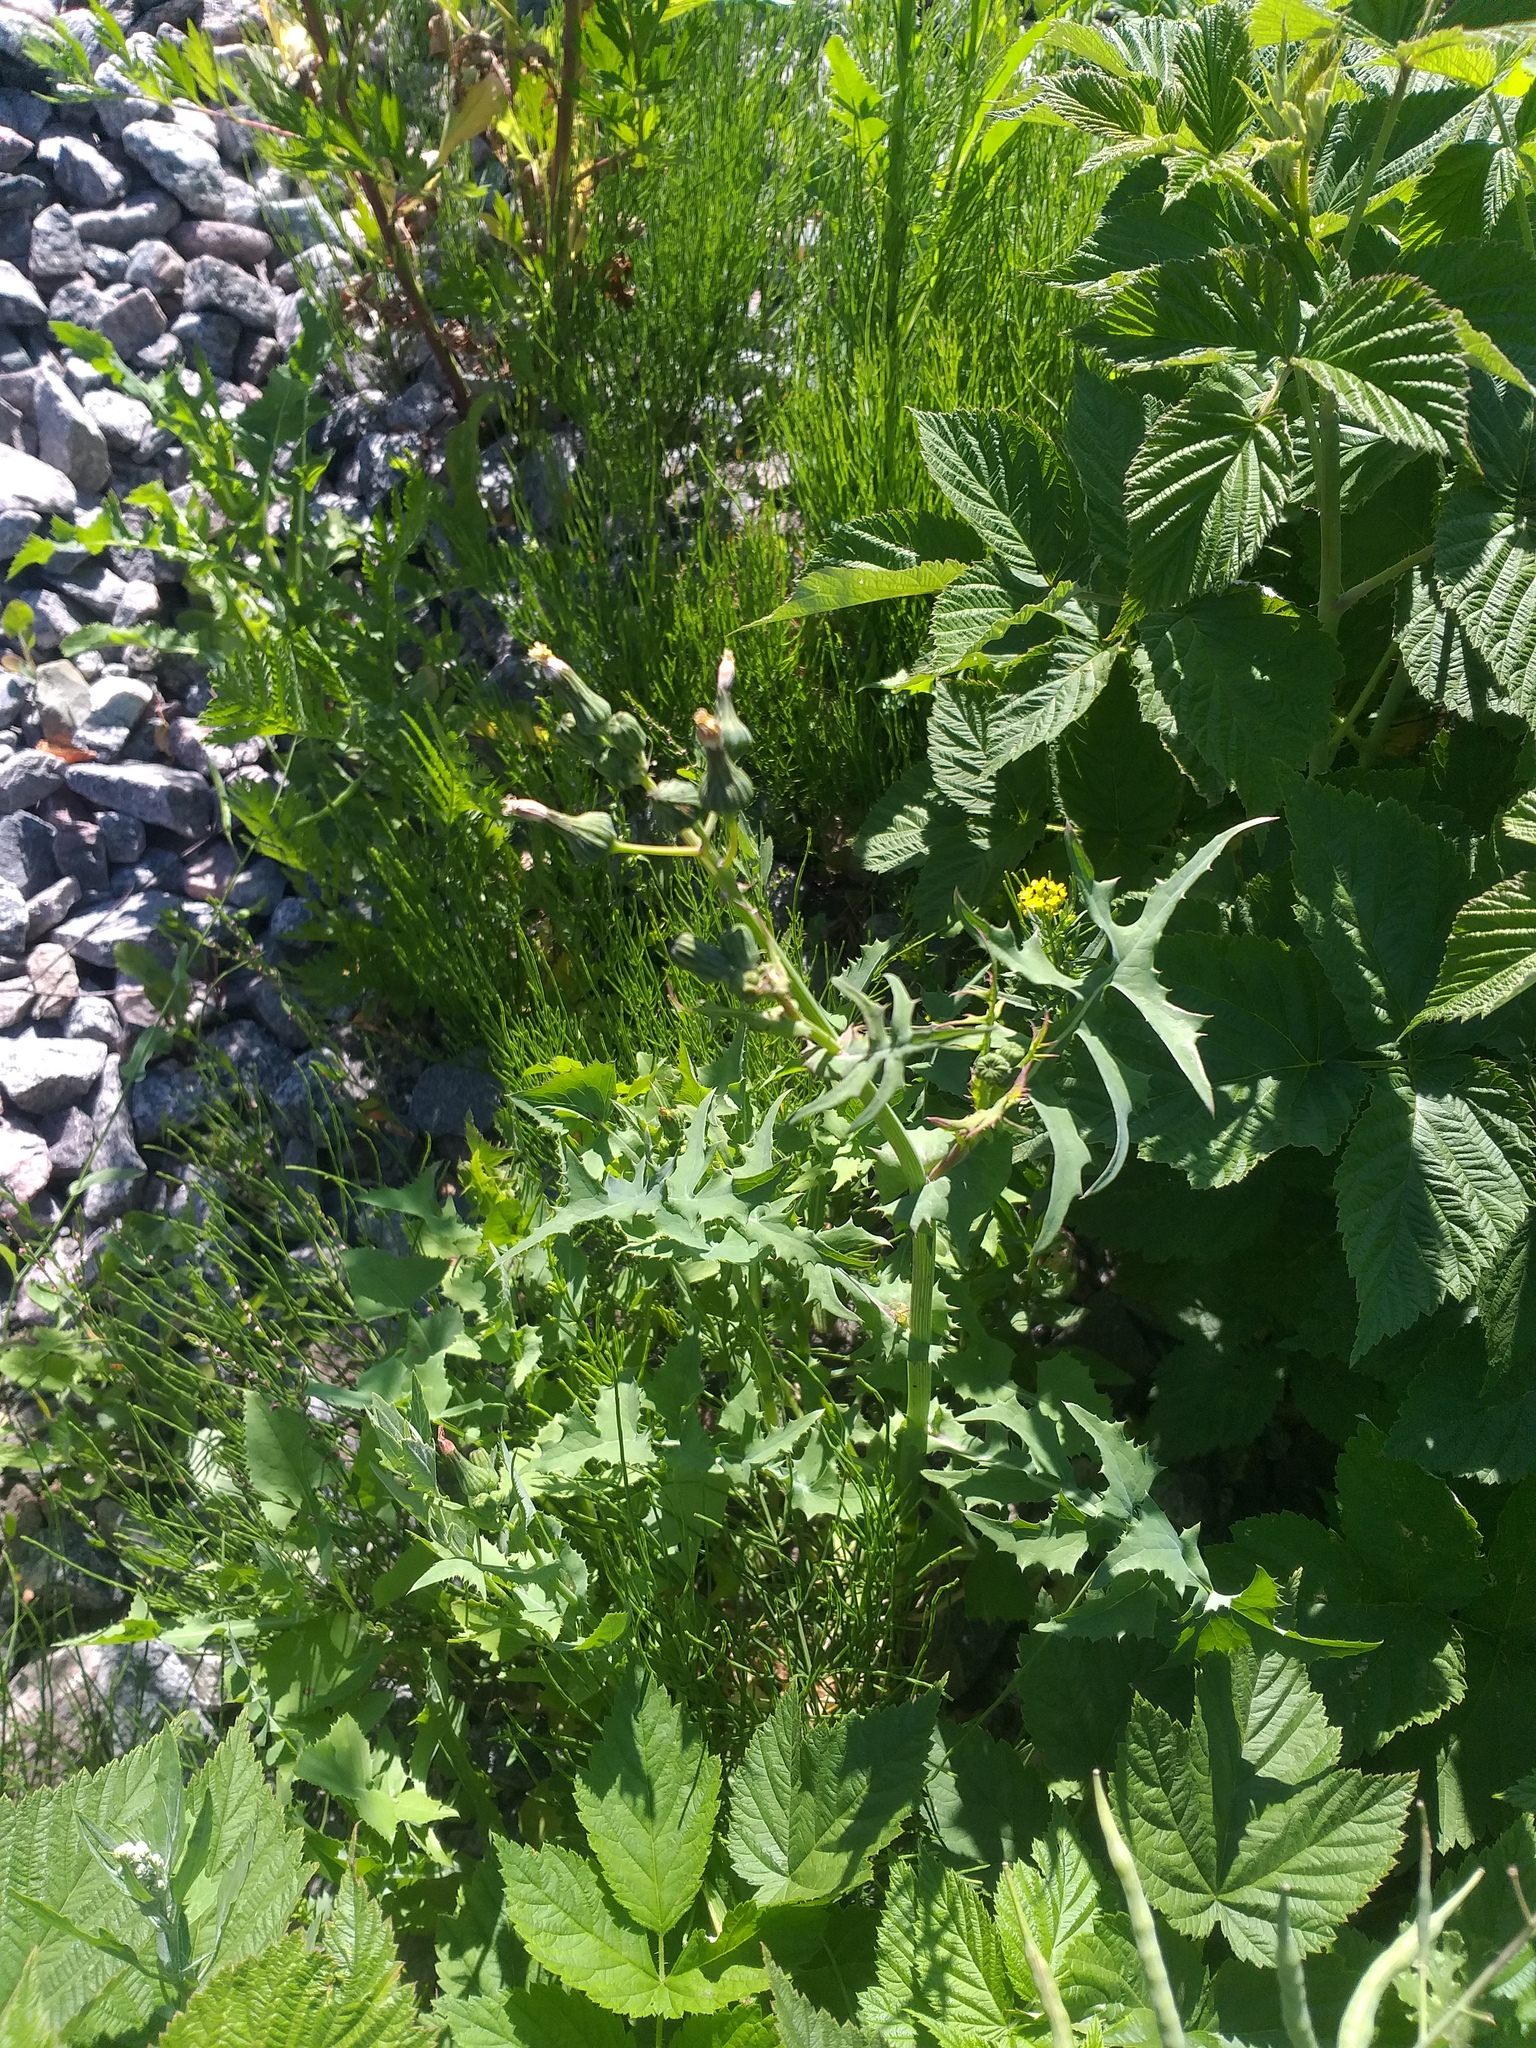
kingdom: Plantae
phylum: Tracheophyta
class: Magnoliopsida
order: Asterales
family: Asteraceae
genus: Sonchus
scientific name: Sonchus oleraceus
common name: Common sowthistle
